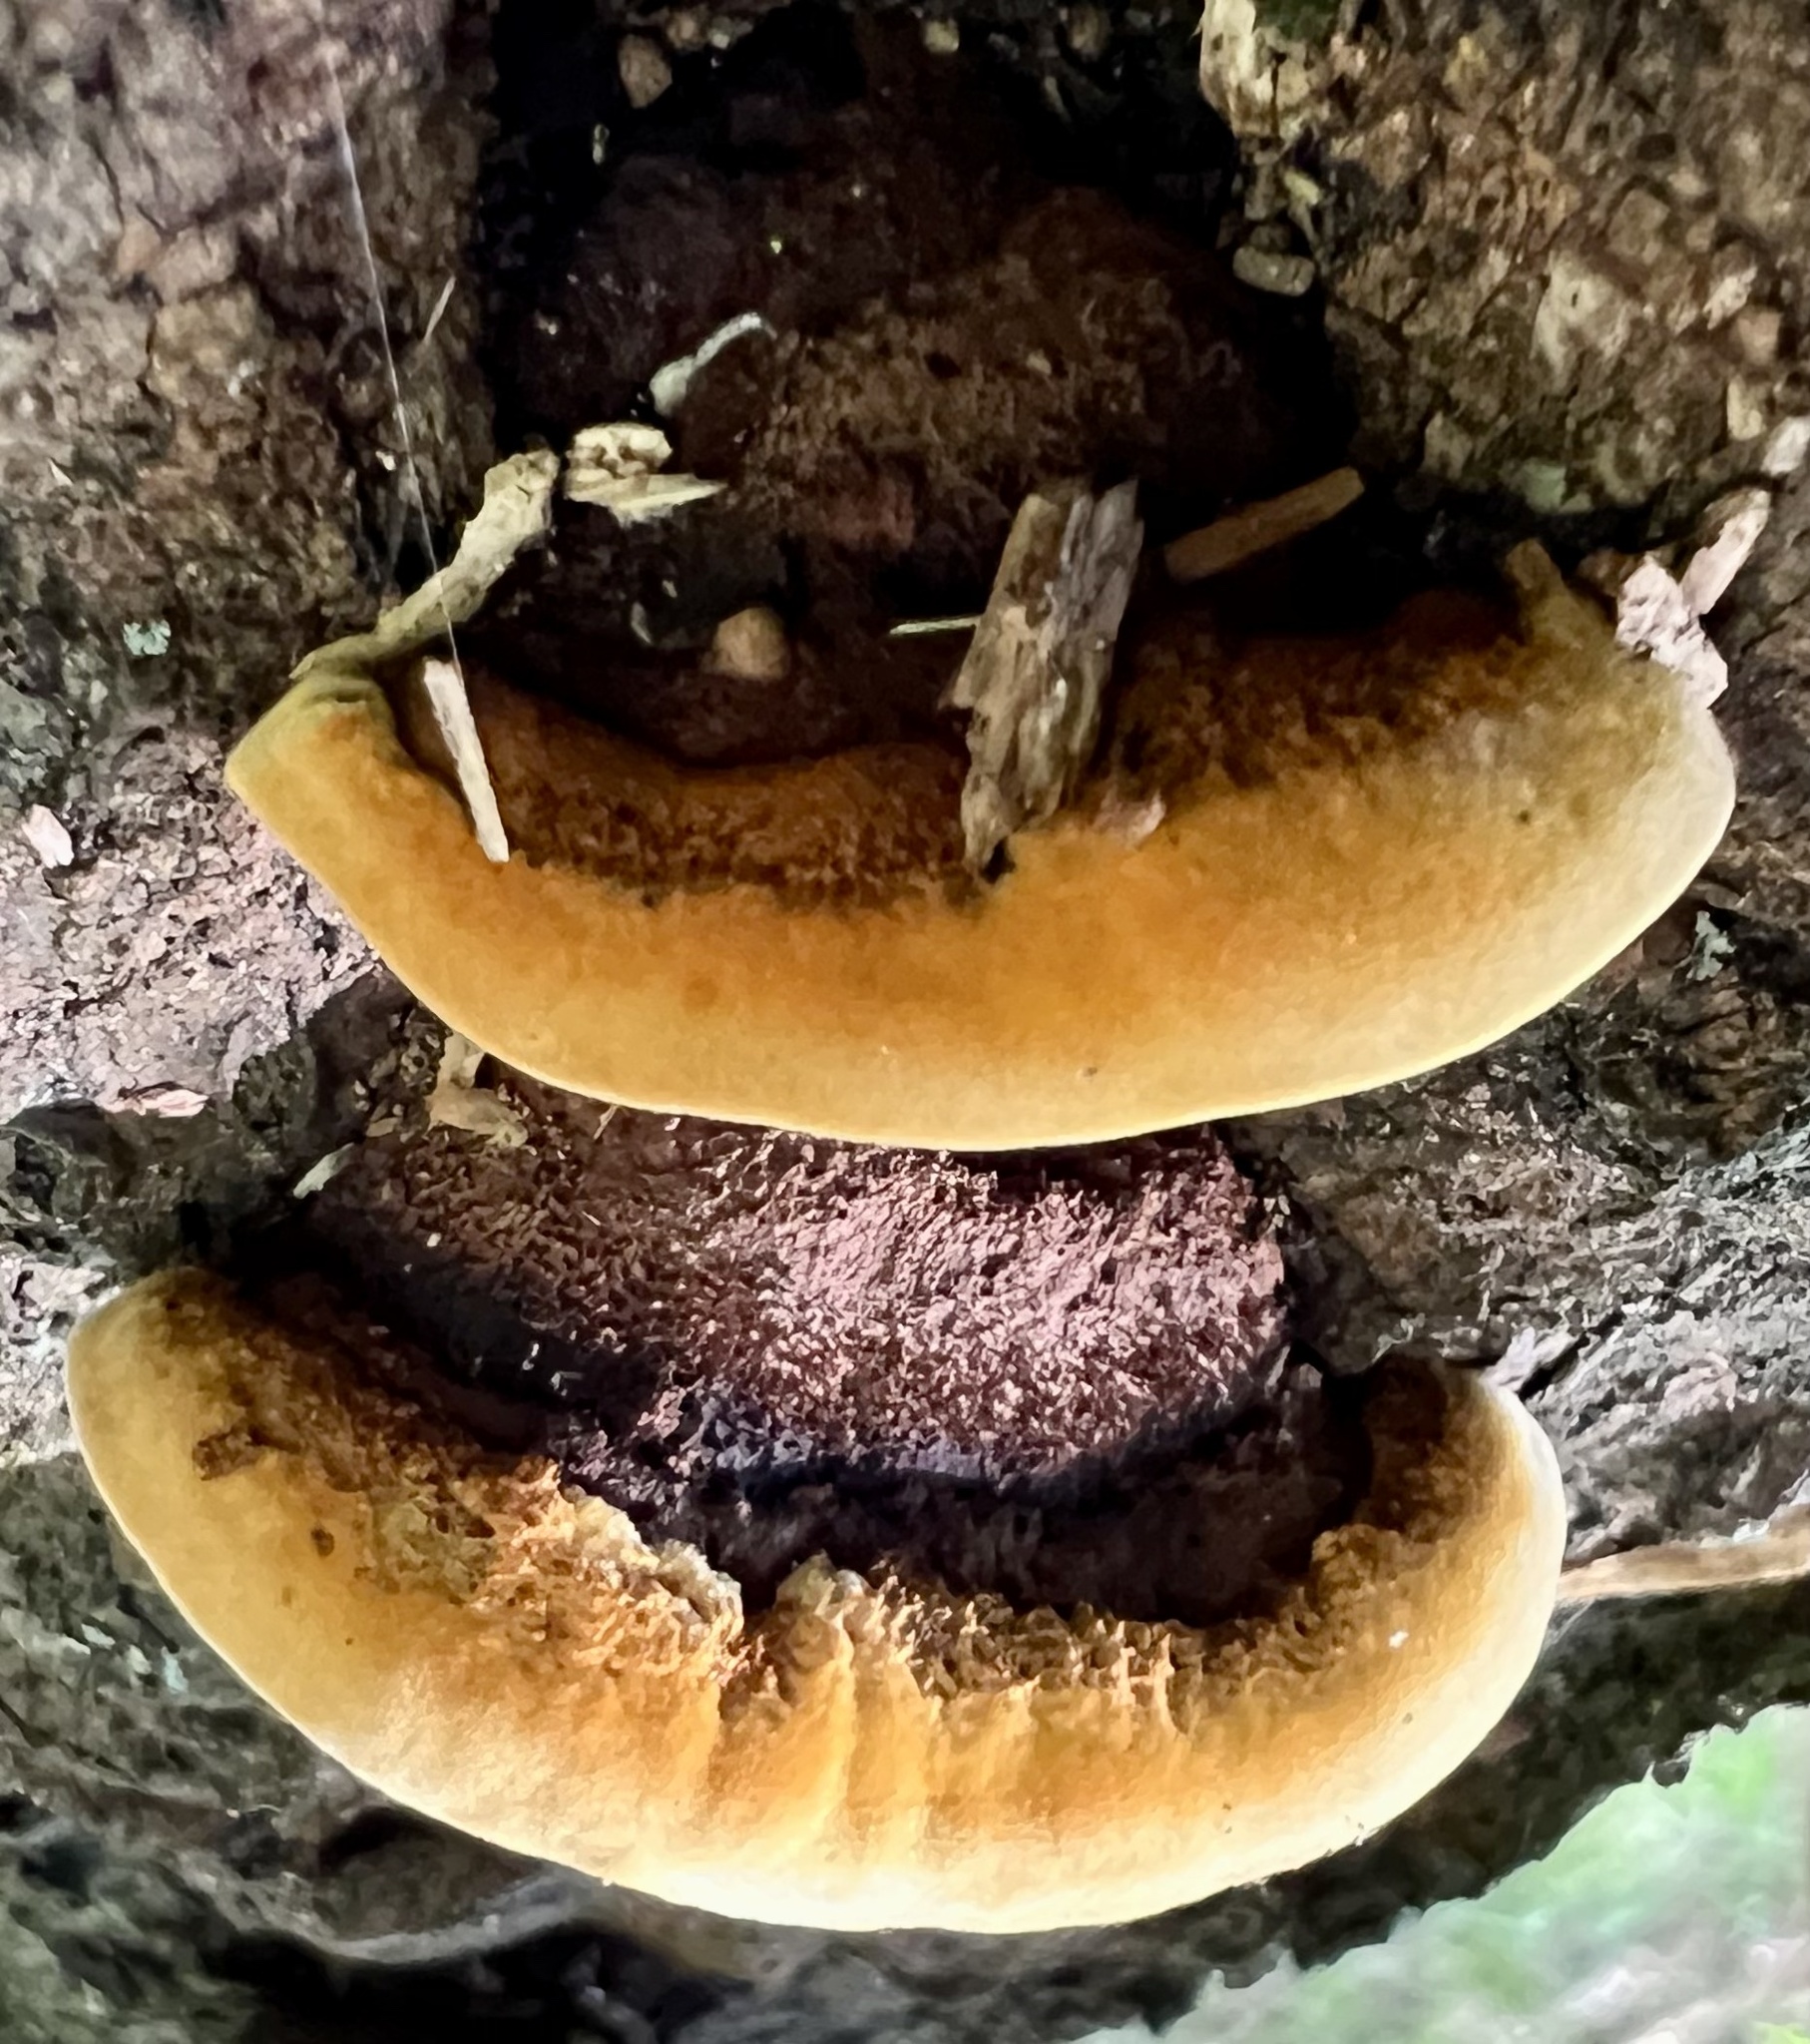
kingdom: Fungi
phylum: Basidiomycota
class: Agaricomycetes
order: Gloeophyllales
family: Gloeophyllaceae
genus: Gloeophyllum
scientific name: Gloeophyllum sepiarium
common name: Conifer mazegill
